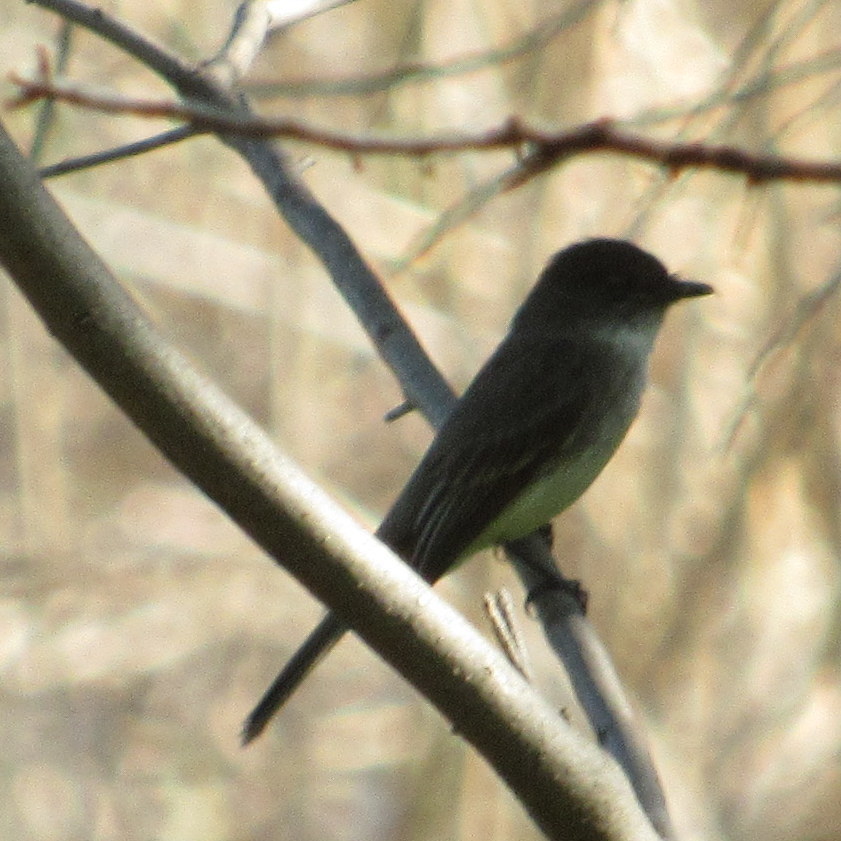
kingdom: Animalia
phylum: Chordata
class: Aves
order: Passeriformes
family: Tyrannidae
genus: Sayornis
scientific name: Sayornis phoebe
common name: Eastern phoebe
